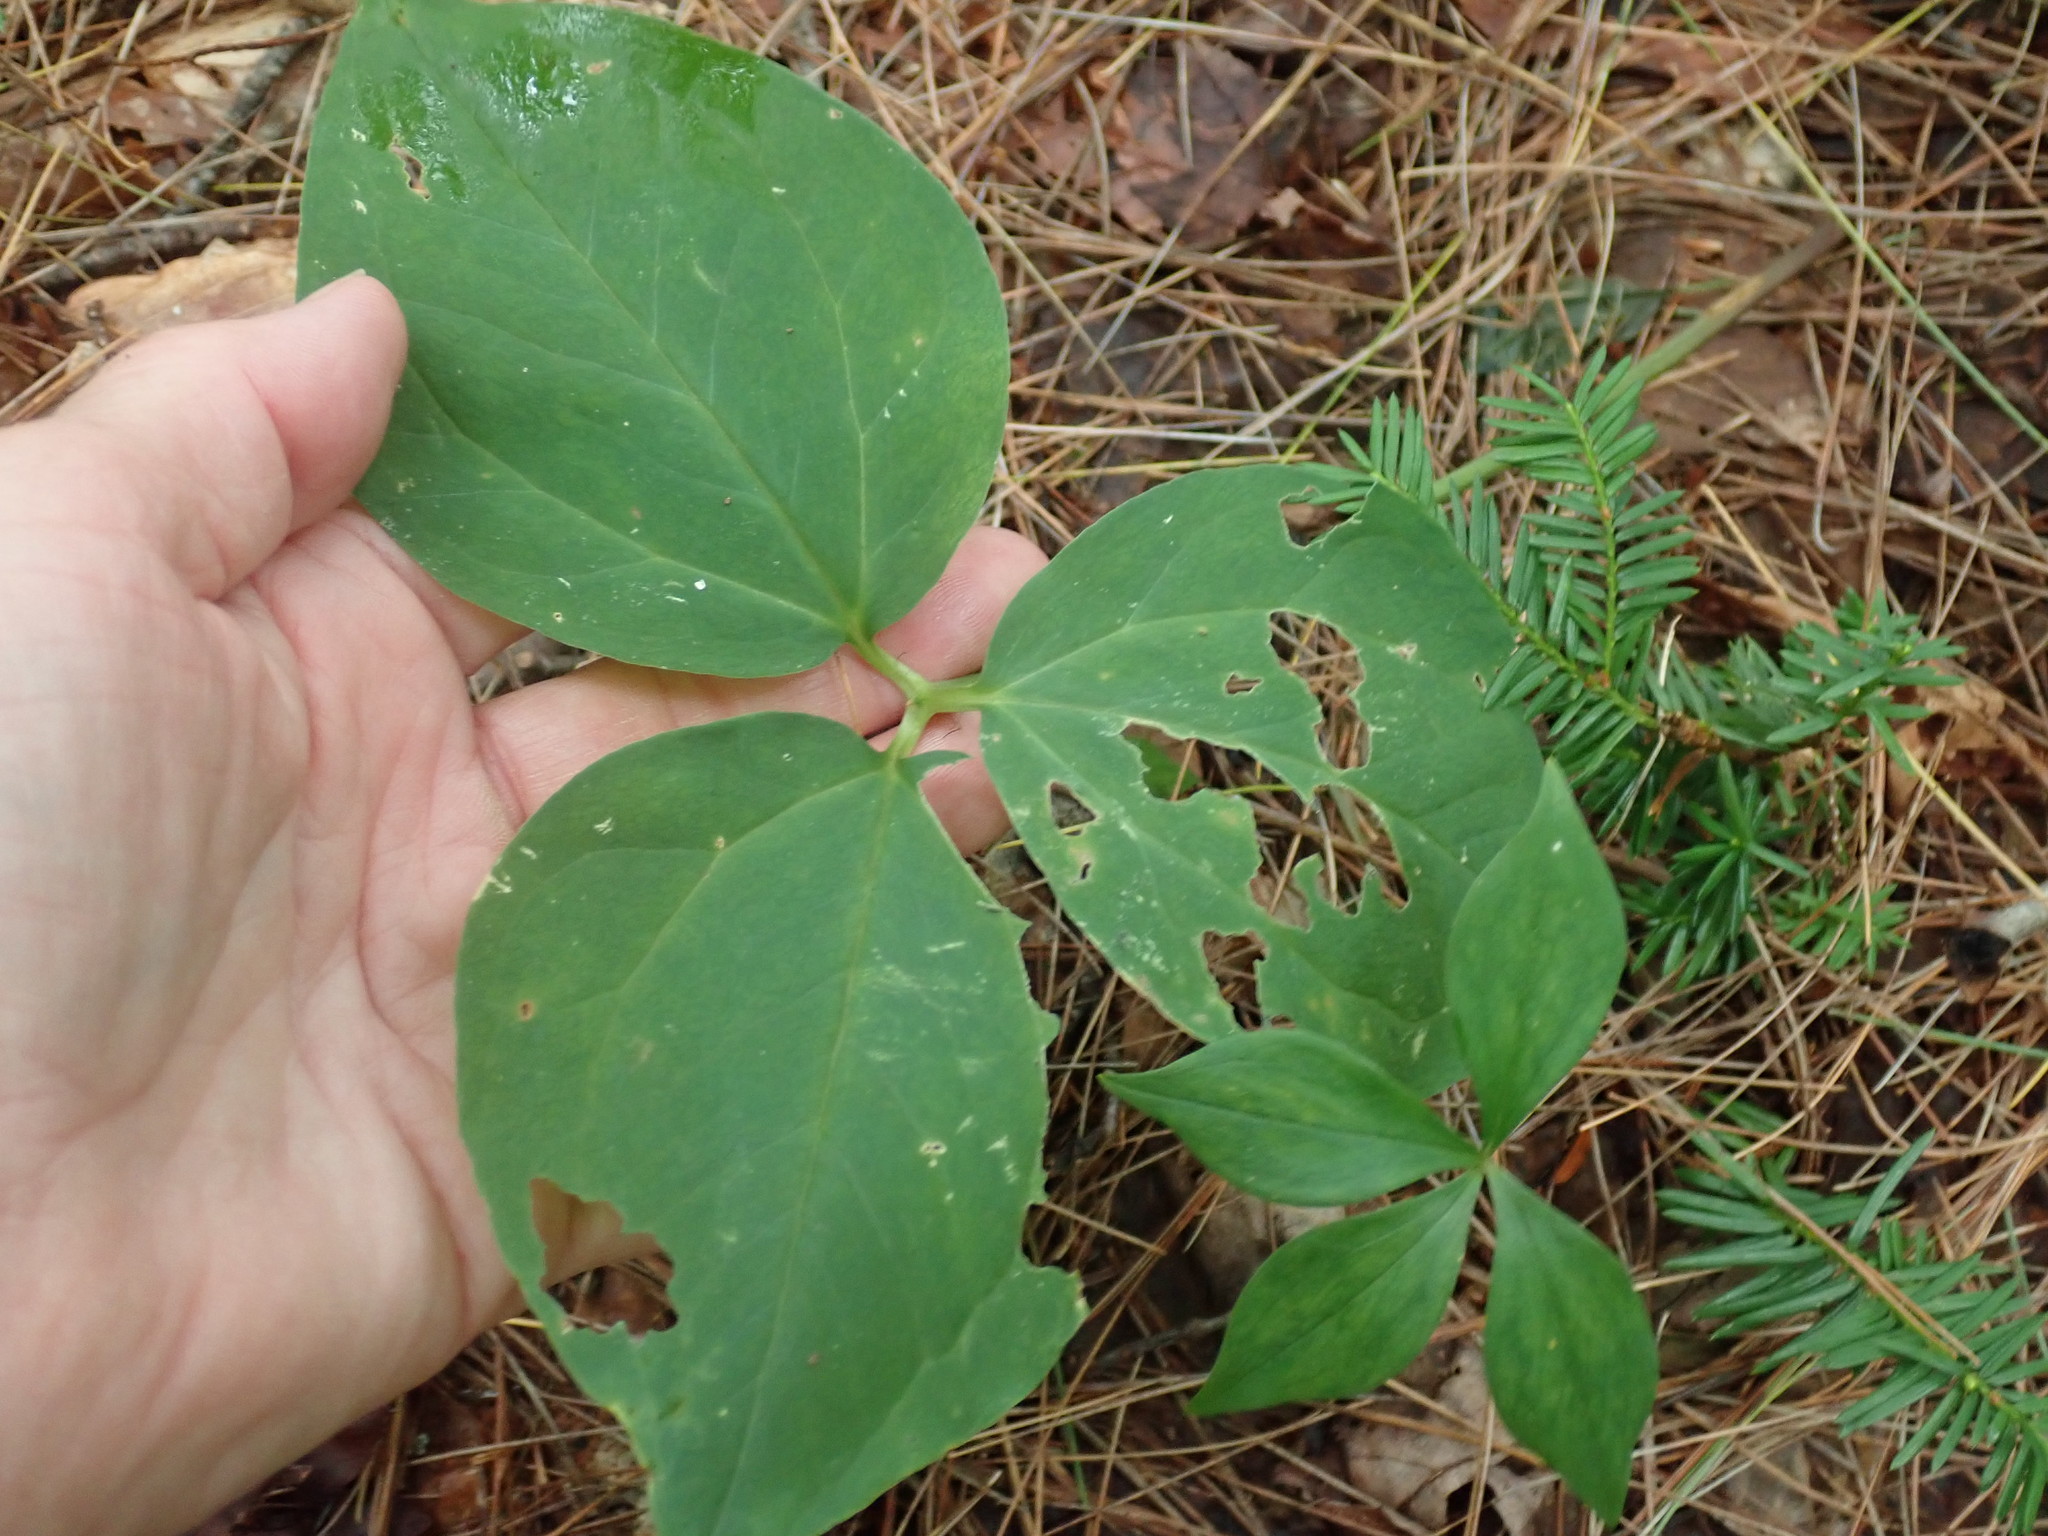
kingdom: Plantae
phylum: Tracheophyta
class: Liliopsida
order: Liliales
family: Melanthiaceae
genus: Trillium
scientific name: Trillium undulatum
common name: Paint trillium
